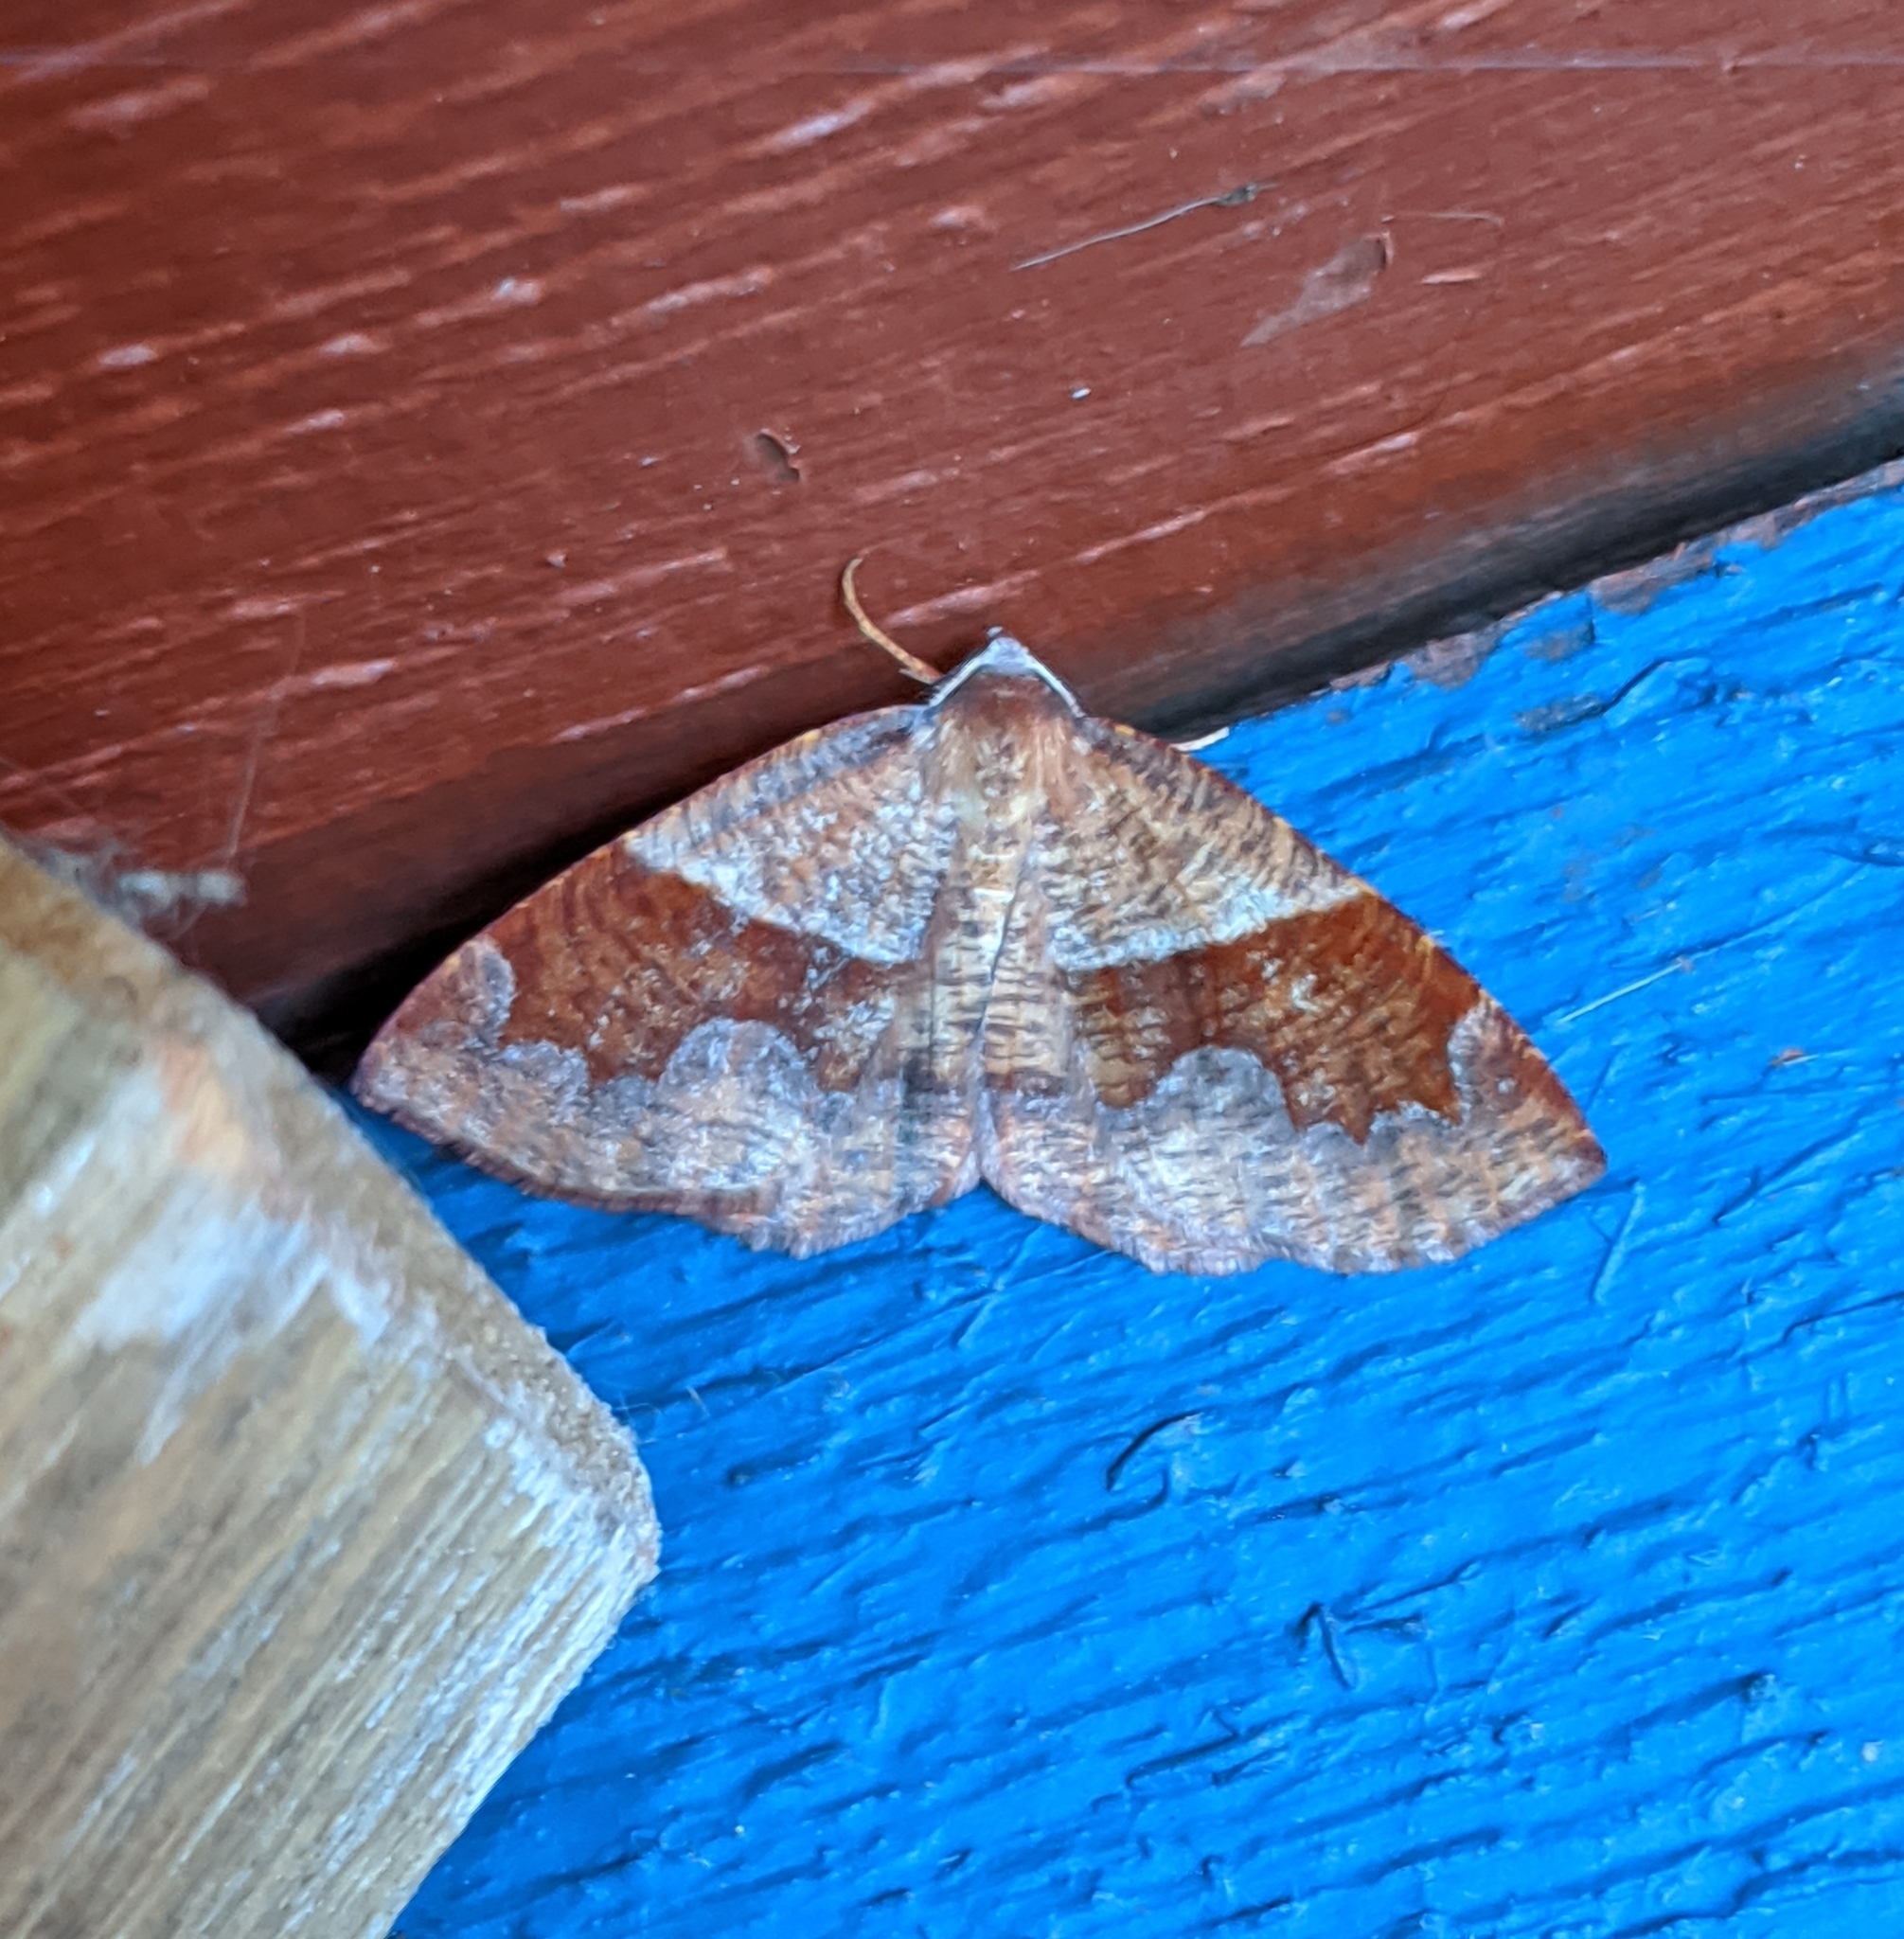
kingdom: Animalia
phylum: Arthropoda
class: Insecta
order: Lepidoptera
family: Geometridae
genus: Plagodis
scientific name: Plagodis pulveraria
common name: Barred umber
